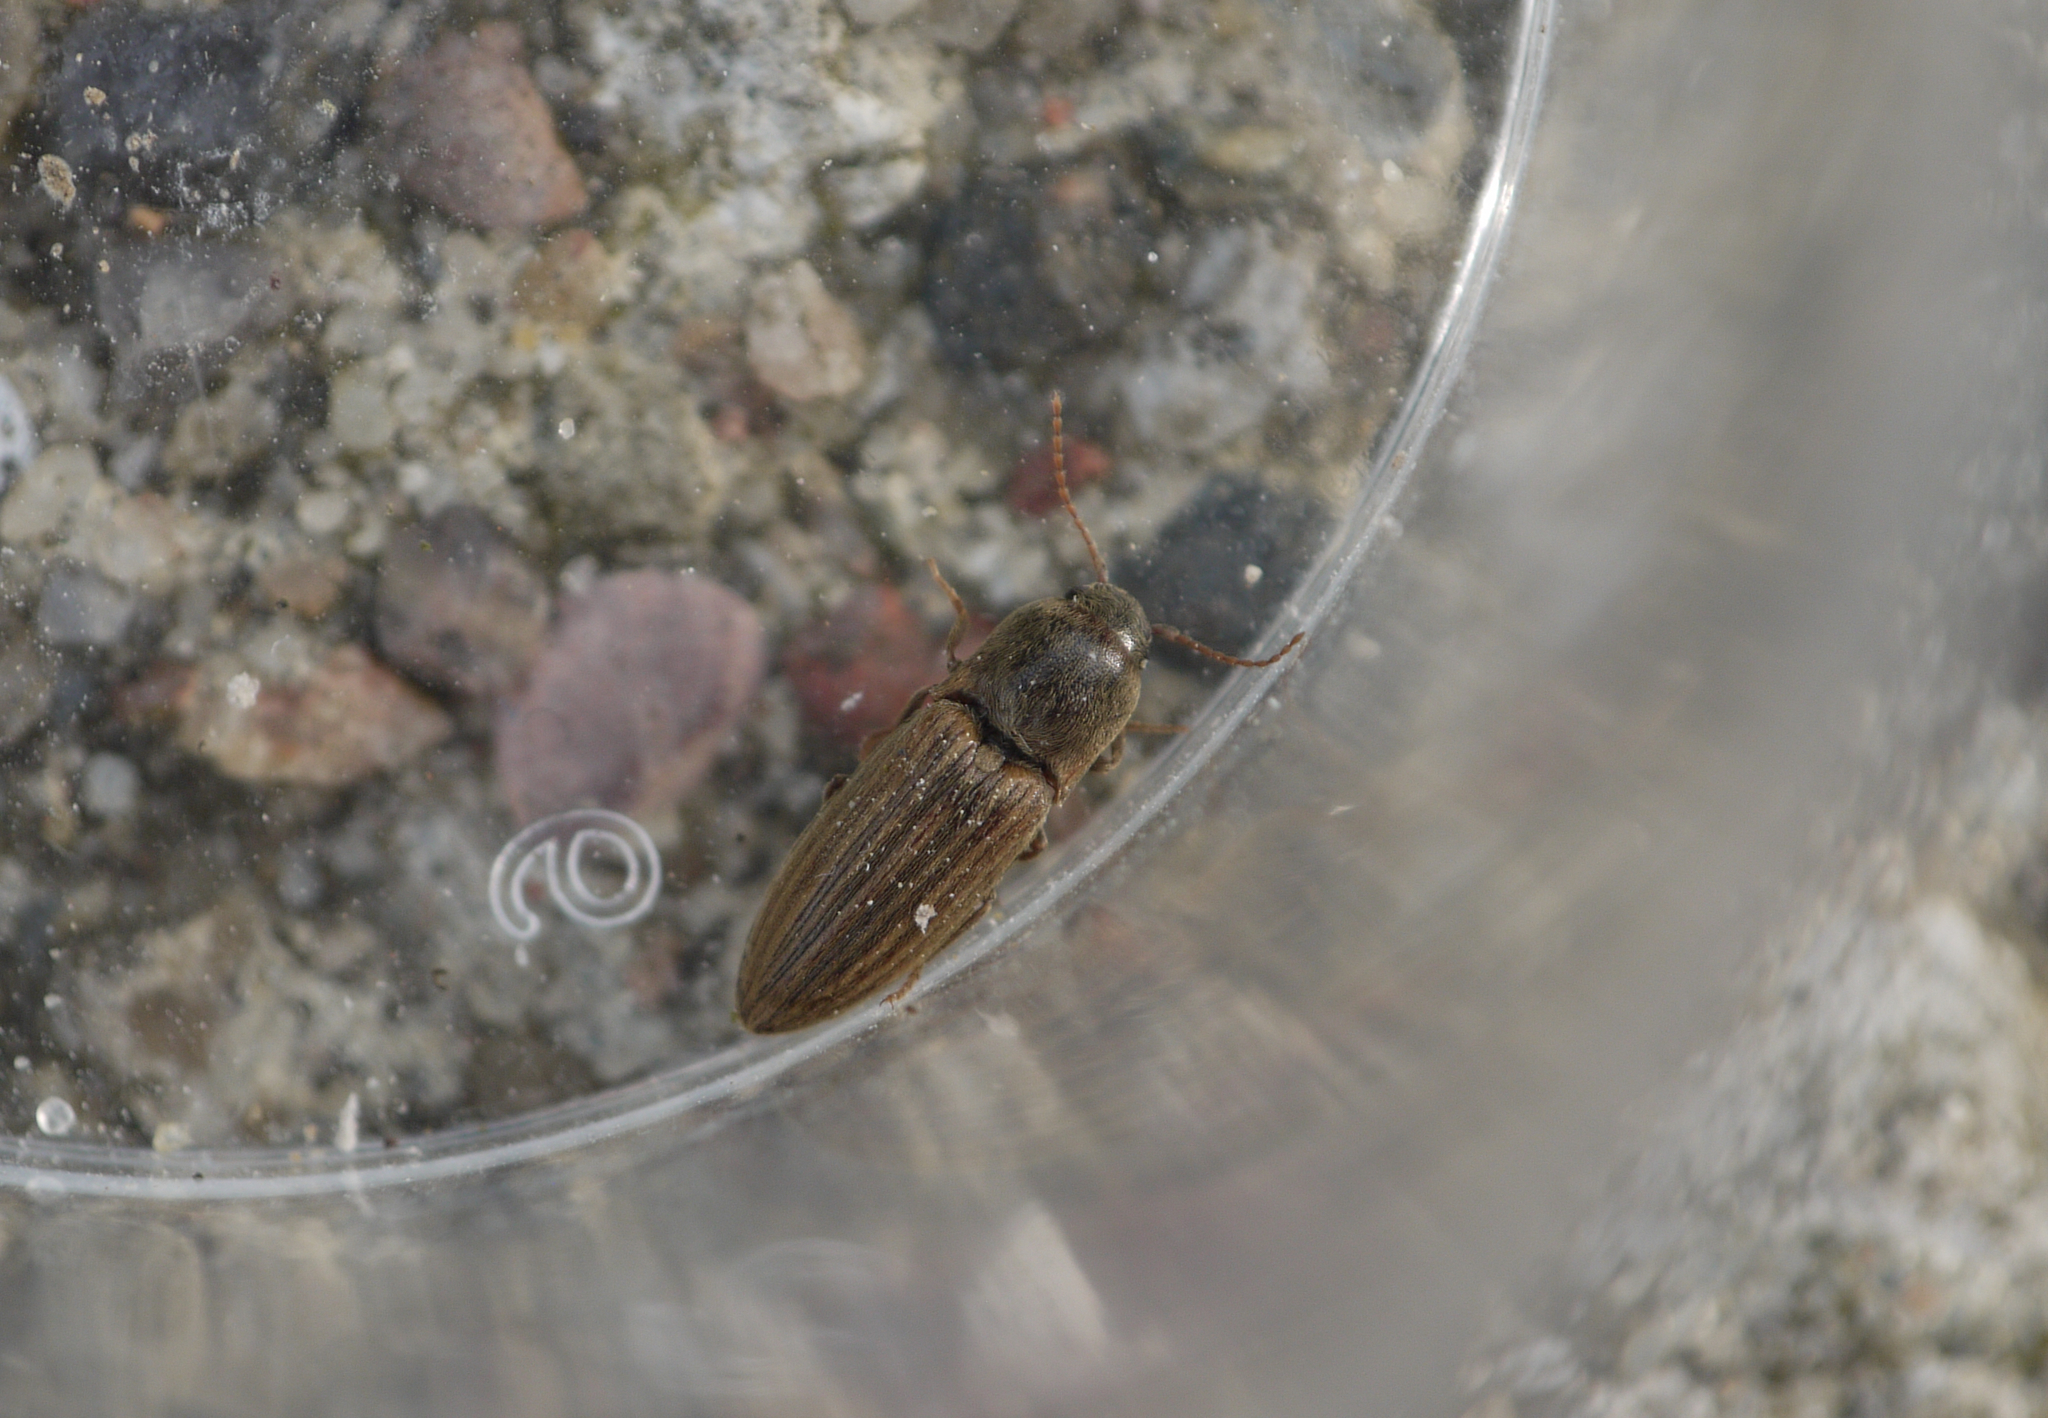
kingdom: Animalia
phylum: Arthropoda
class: Insecta
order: Coleoptera
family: Elateridae
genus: Agriotes
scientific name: Agriotes lineatus
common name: Lined click beetle
